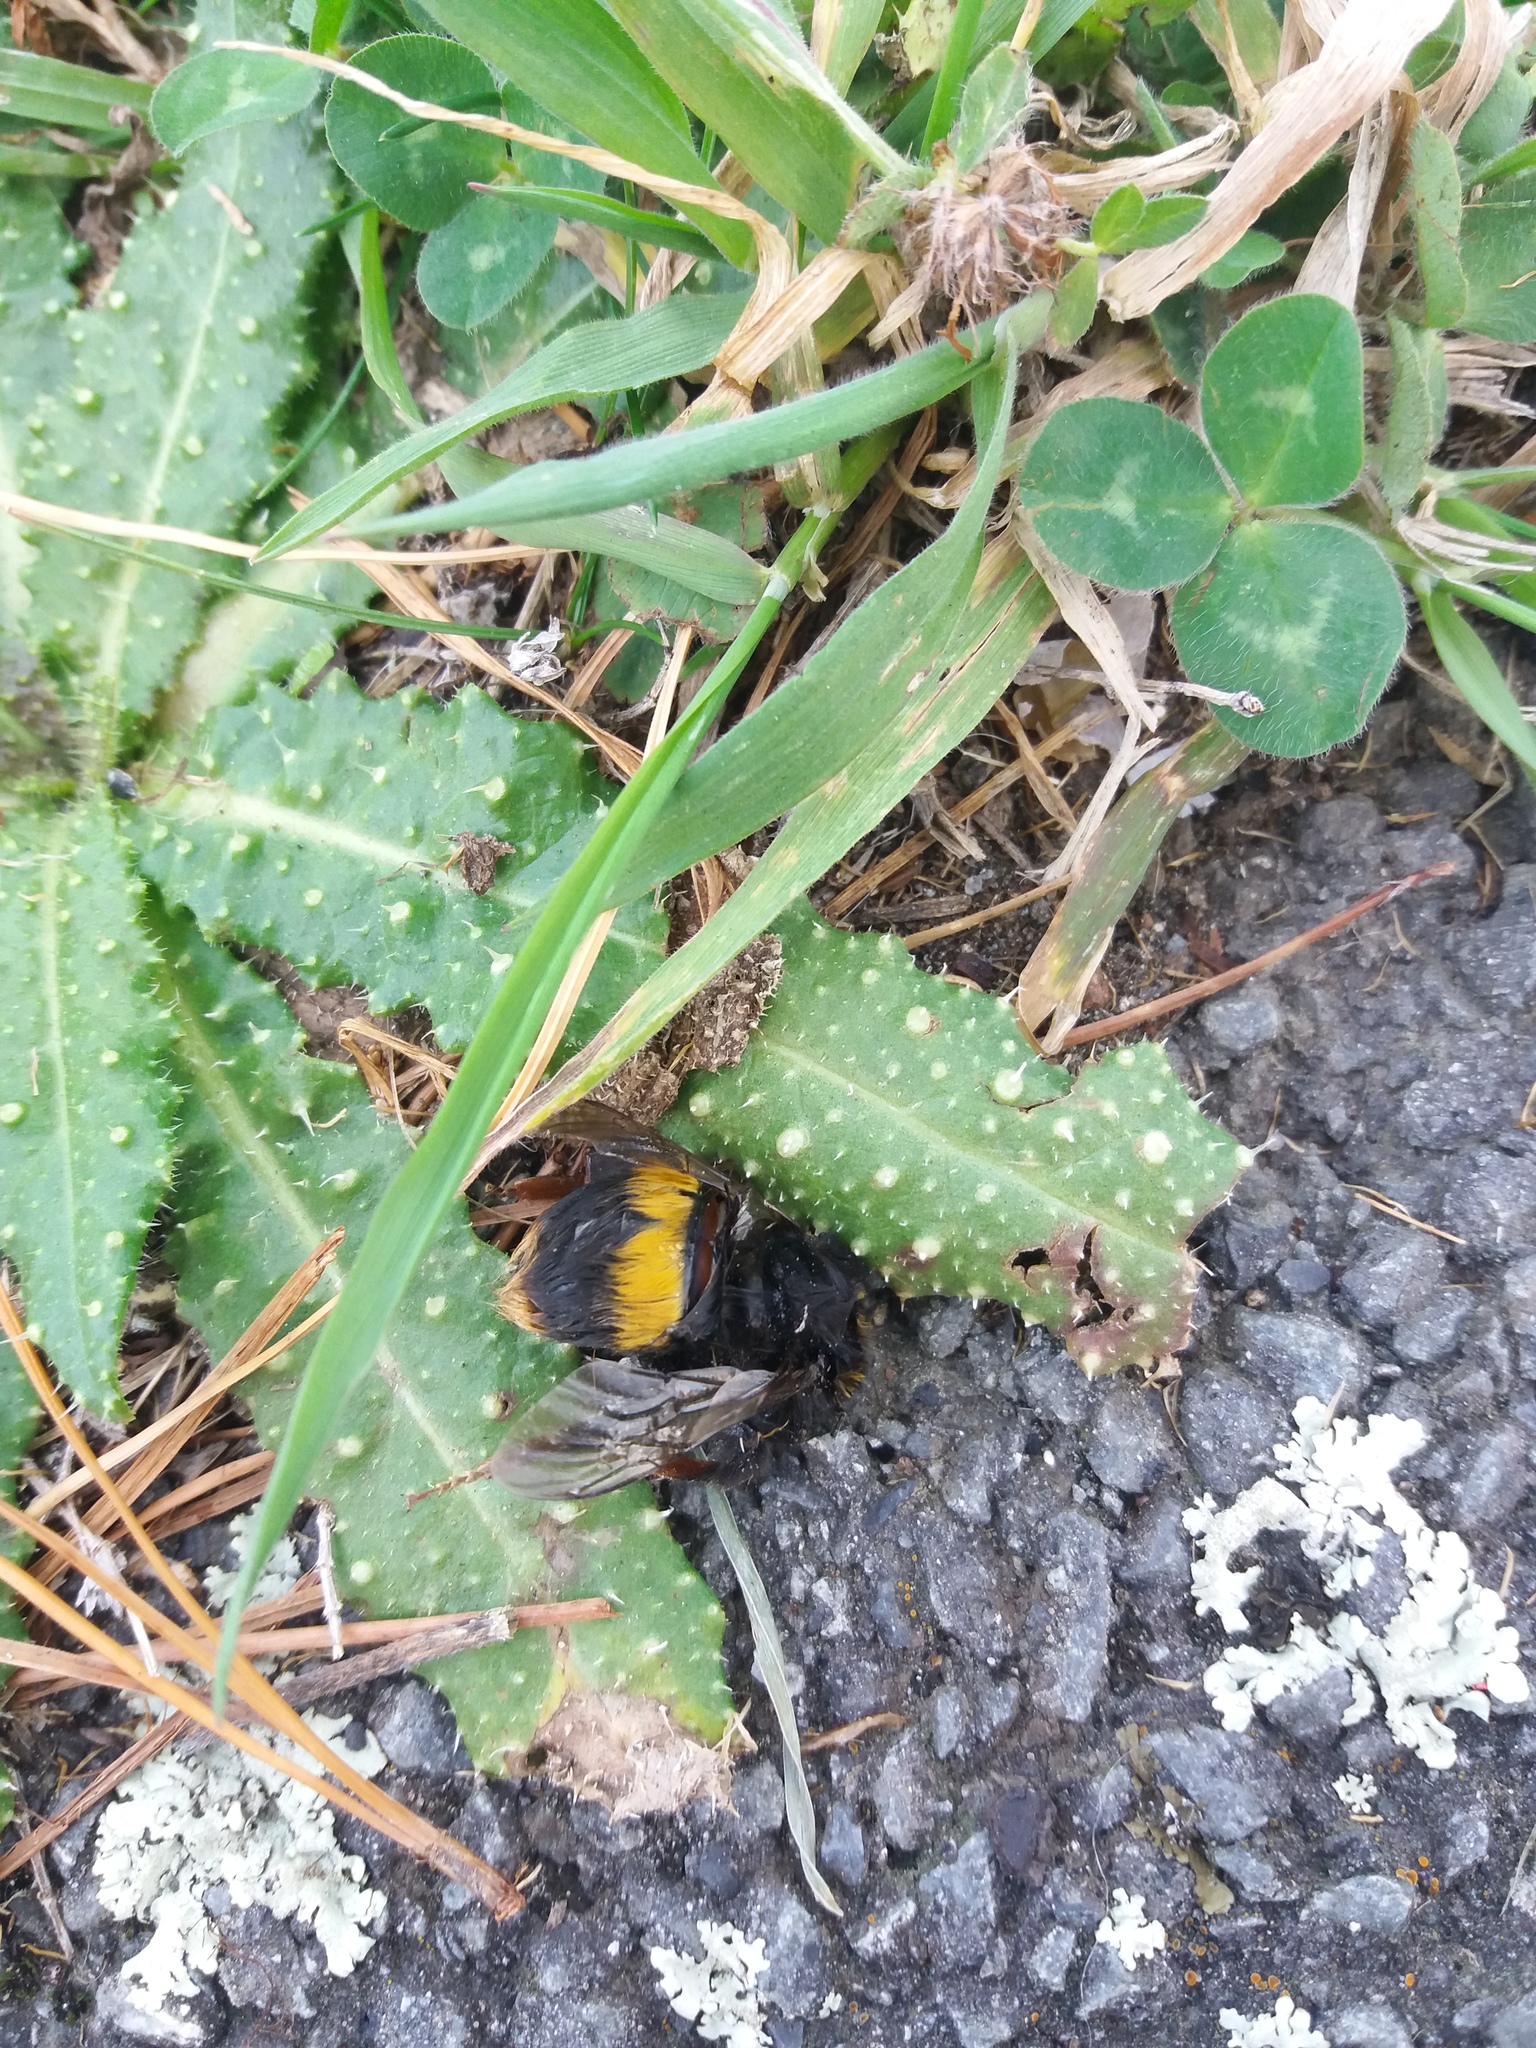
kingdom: Plantae
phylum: Tracheophyta
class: Magnoliopsida
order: Asterales
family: Asteraceae
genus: Helminthotheca
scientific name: Helminthotheca echioides
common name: Ox-tongue
